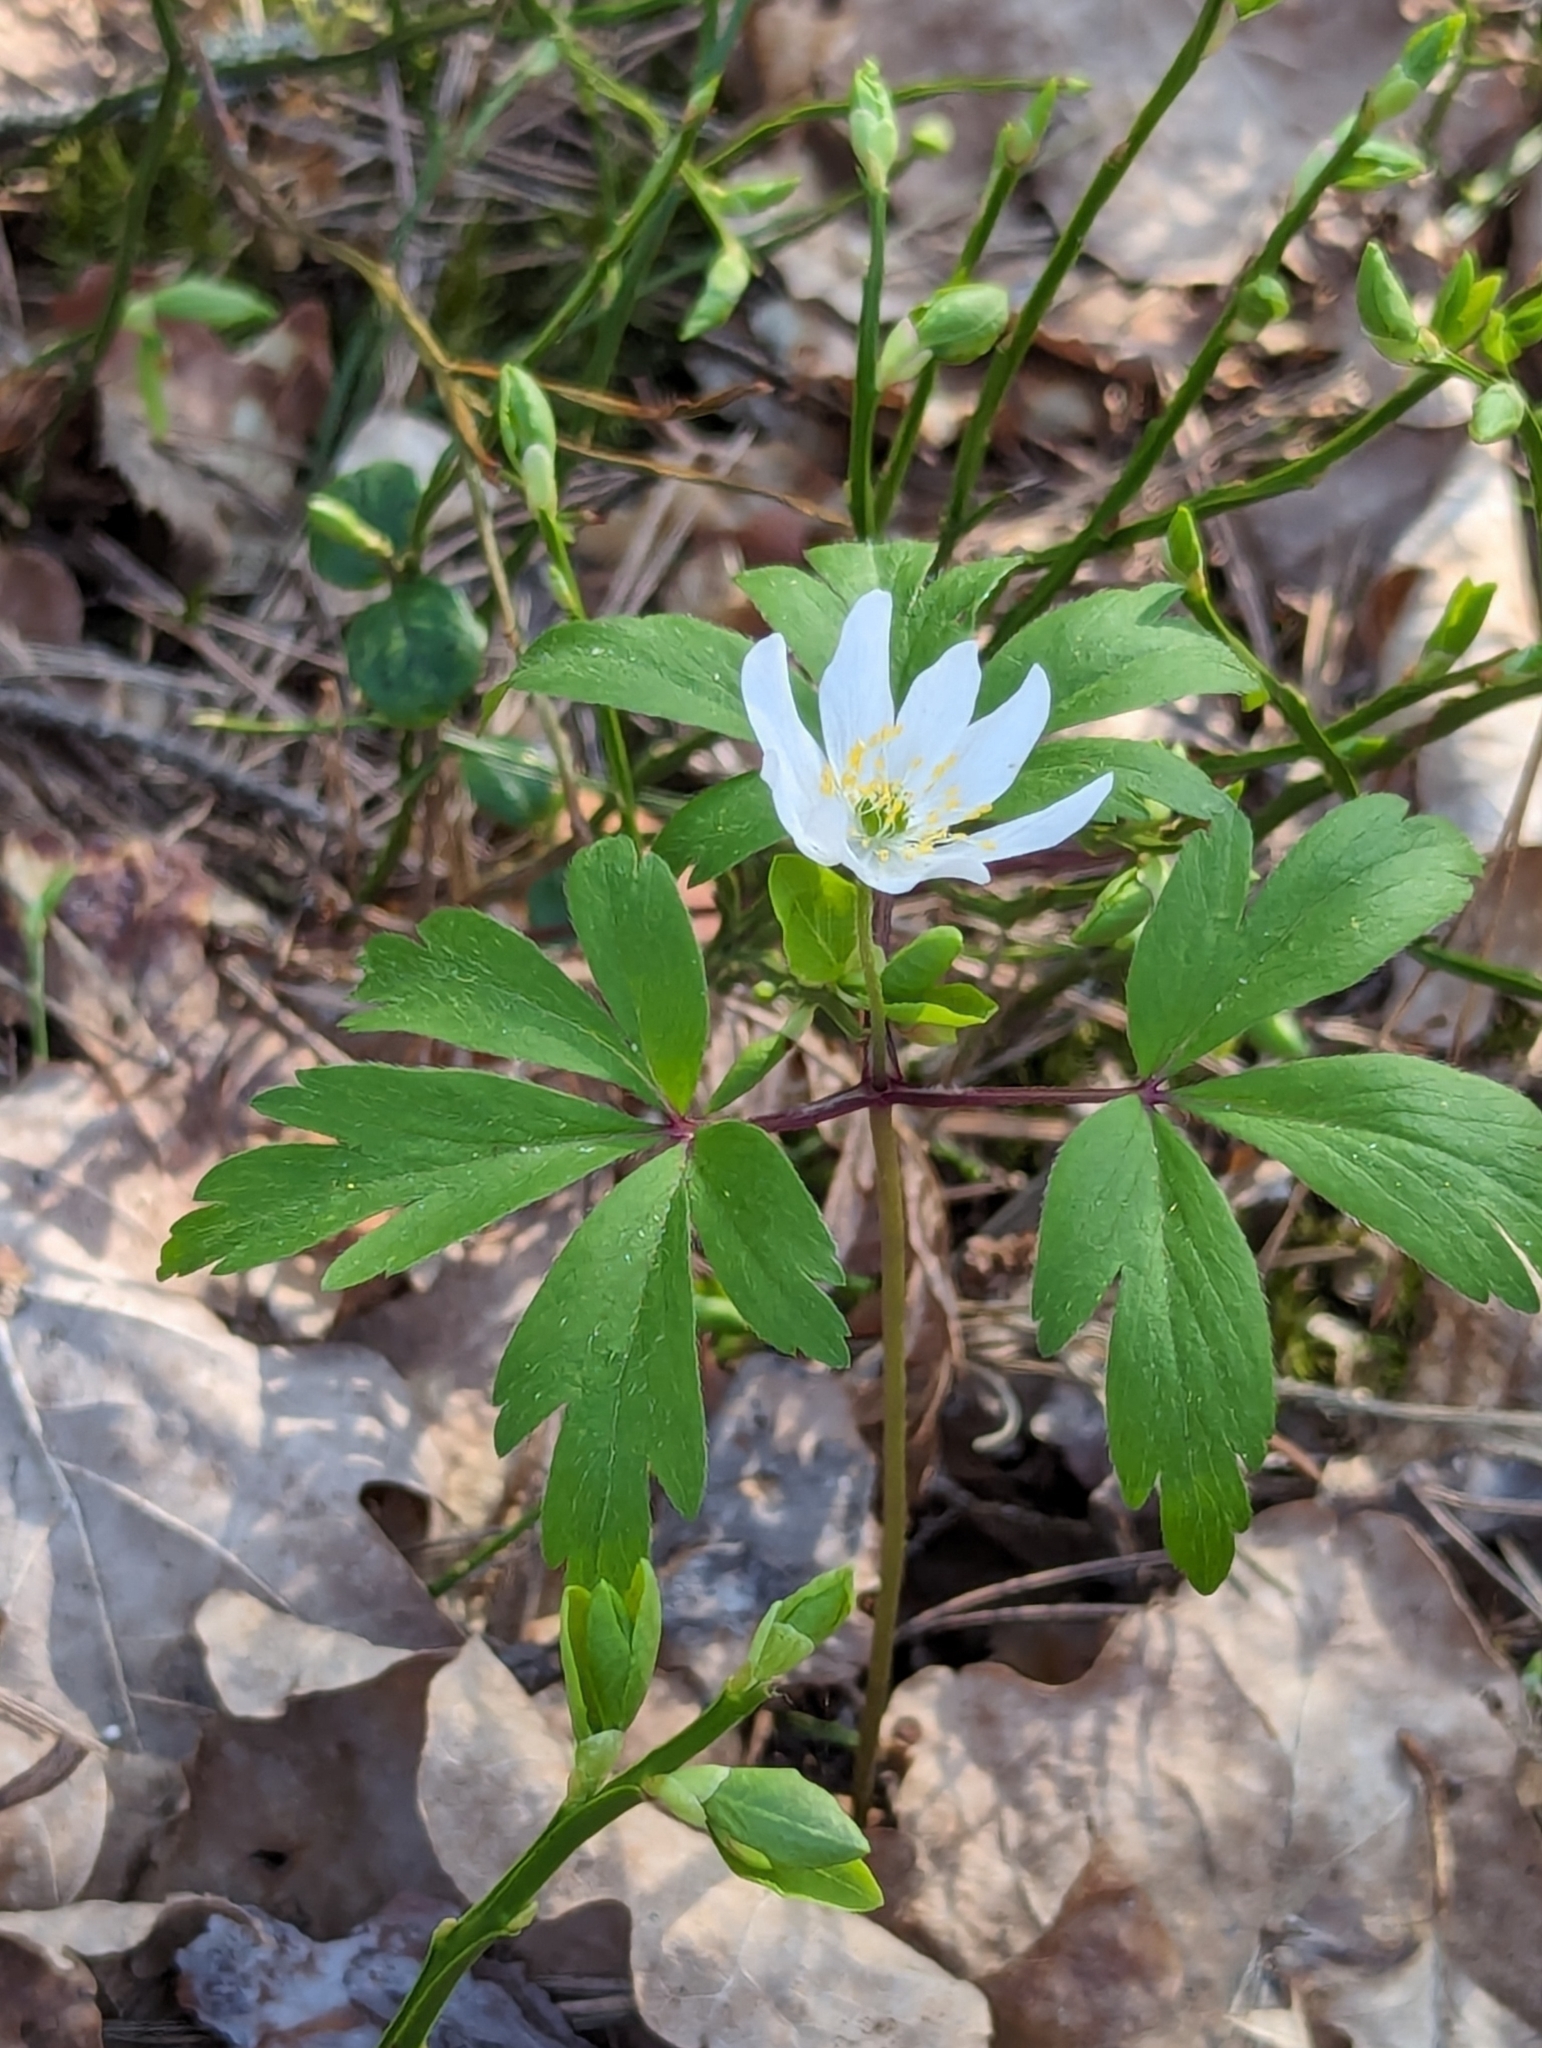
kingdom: Plantae
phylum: Tracheophyta
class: Magnoliopsida
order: Ranunculales
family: Ranunculaceae
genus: Anemone
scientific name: Anemone nemorosa
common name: Wood anemone
